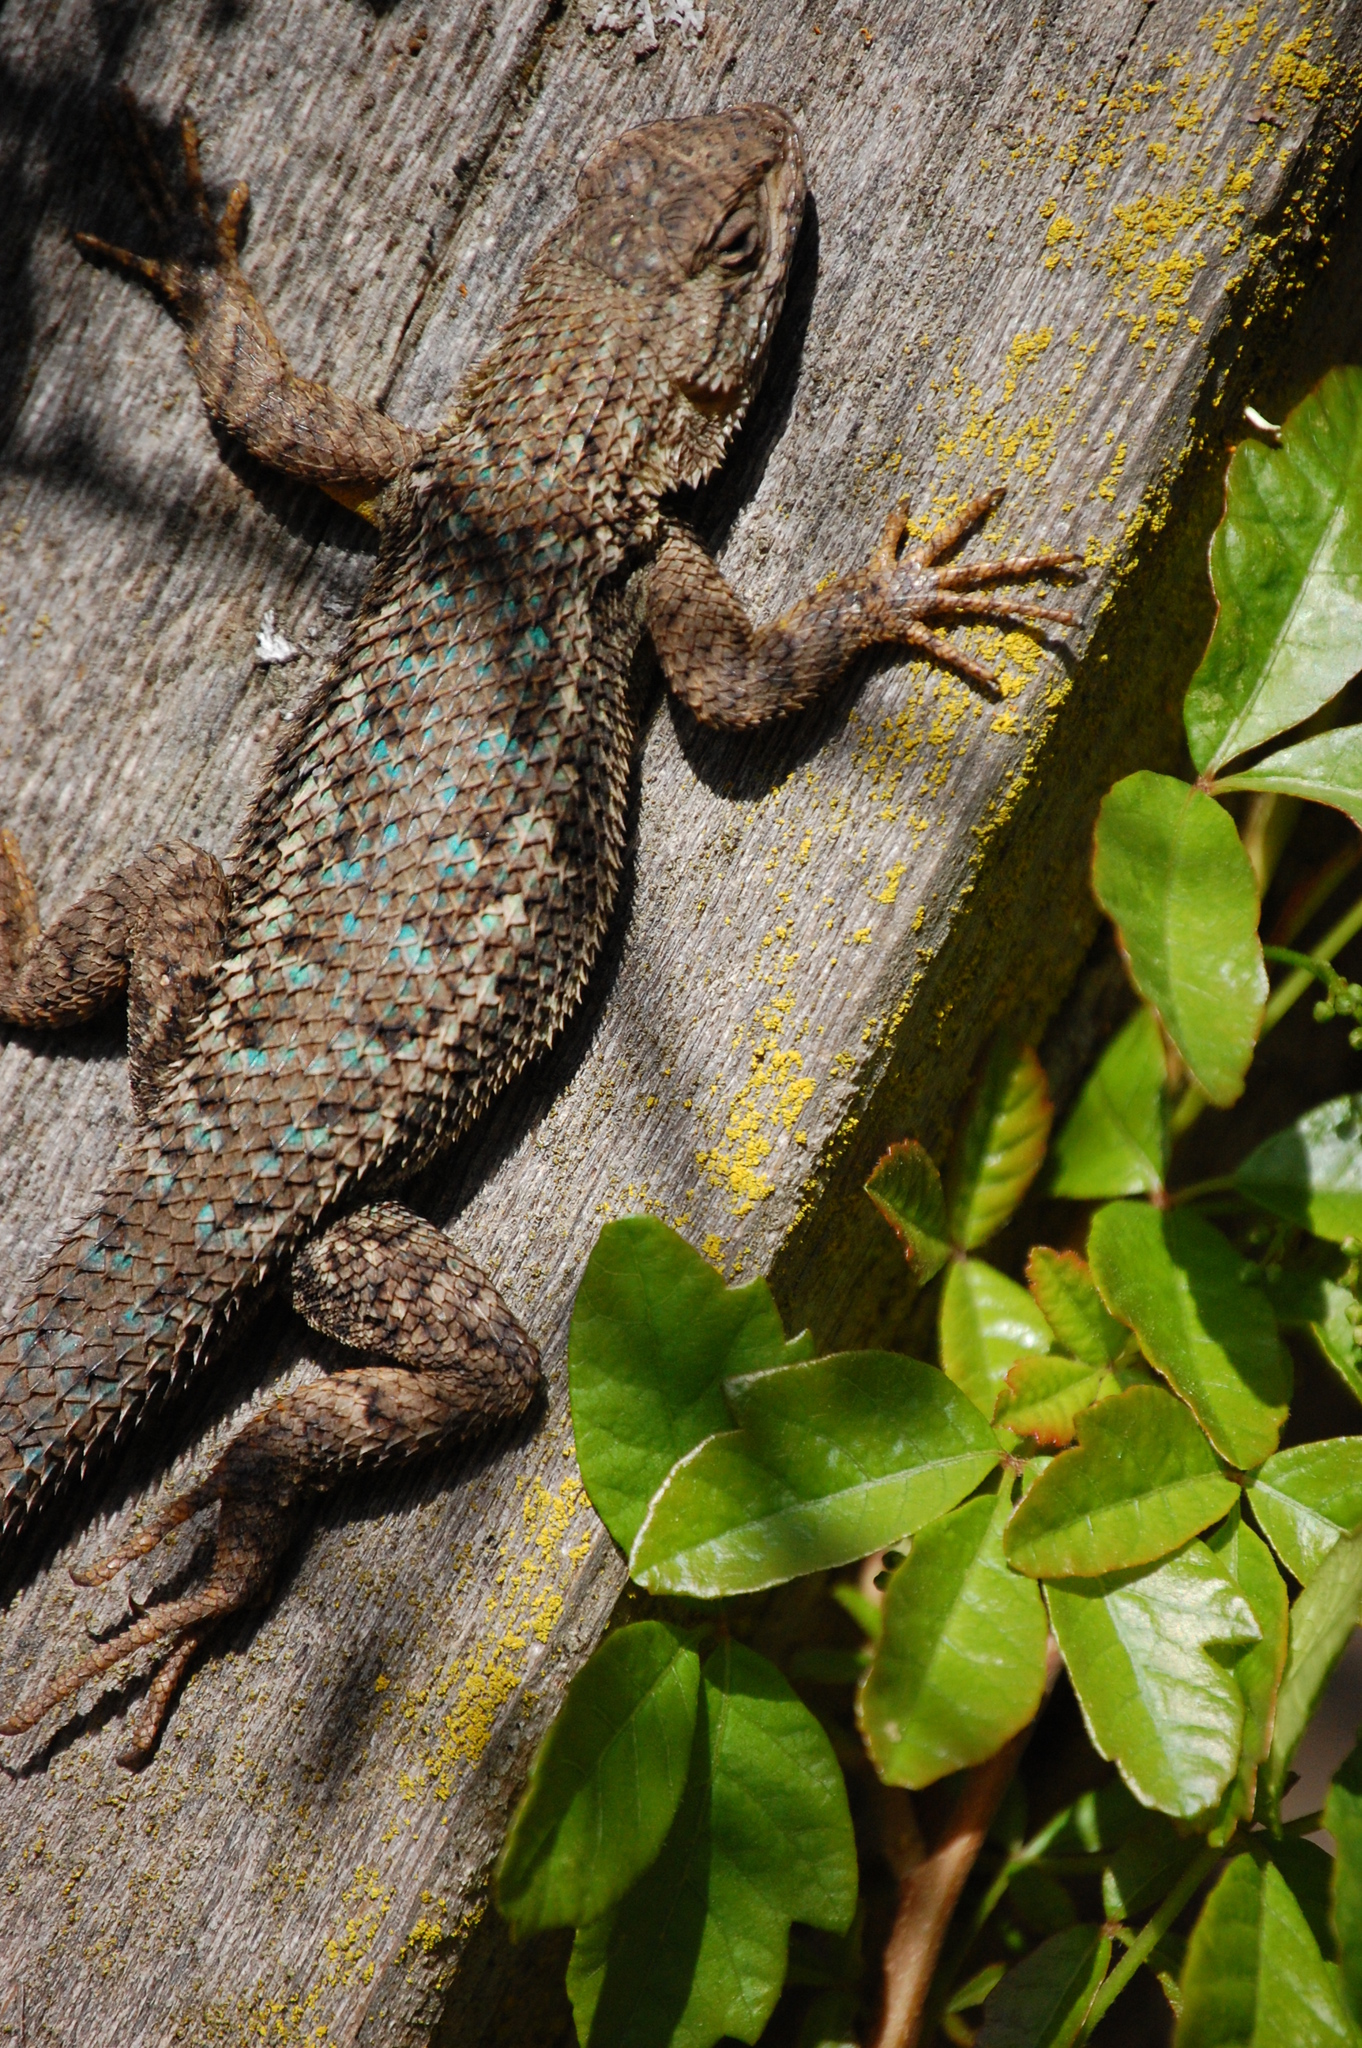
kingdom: Animalia
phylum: Chordata
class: Squamata
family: Phrynosomatidae
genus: Sceloporus
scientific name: Sceloporus occidentalis
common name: Western fence lizard
